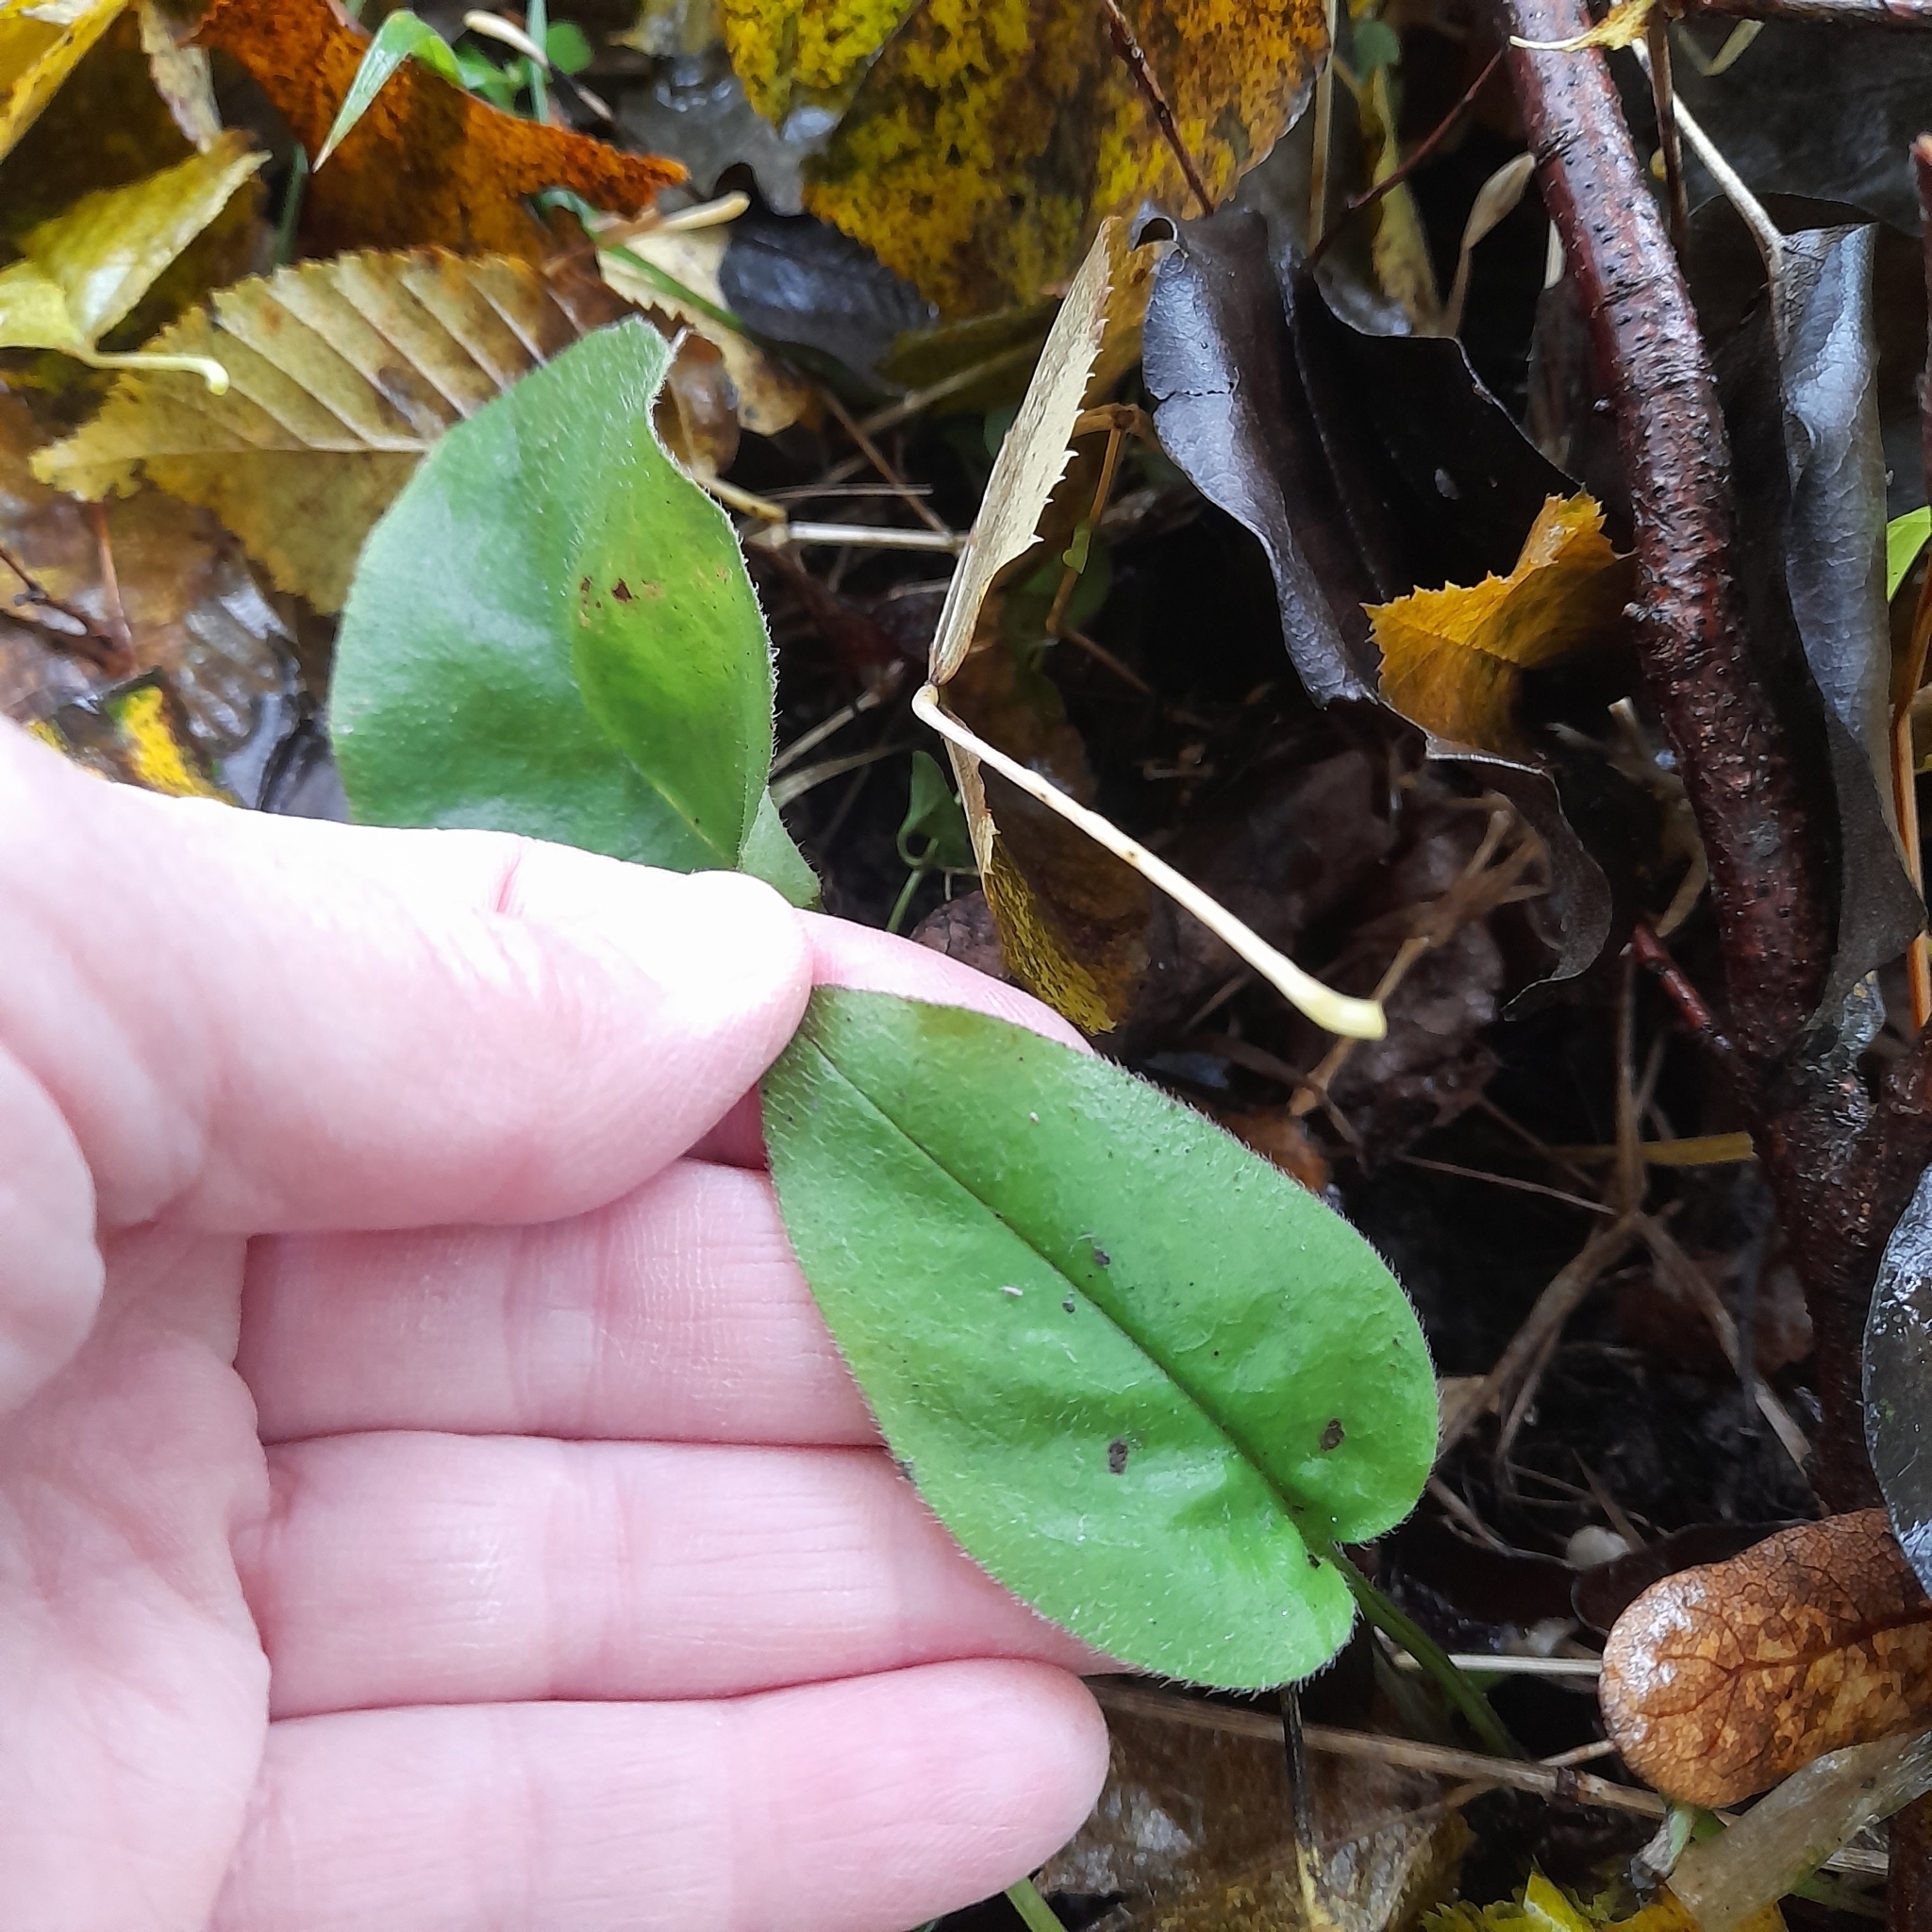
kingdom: Plantae
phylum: Tracheophyta
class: Magnoliopsida
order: Boraginales
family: Boraginaceae
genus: Pulmonaria
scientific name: Pulmonaria obscura
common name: Suffolk lungwort
